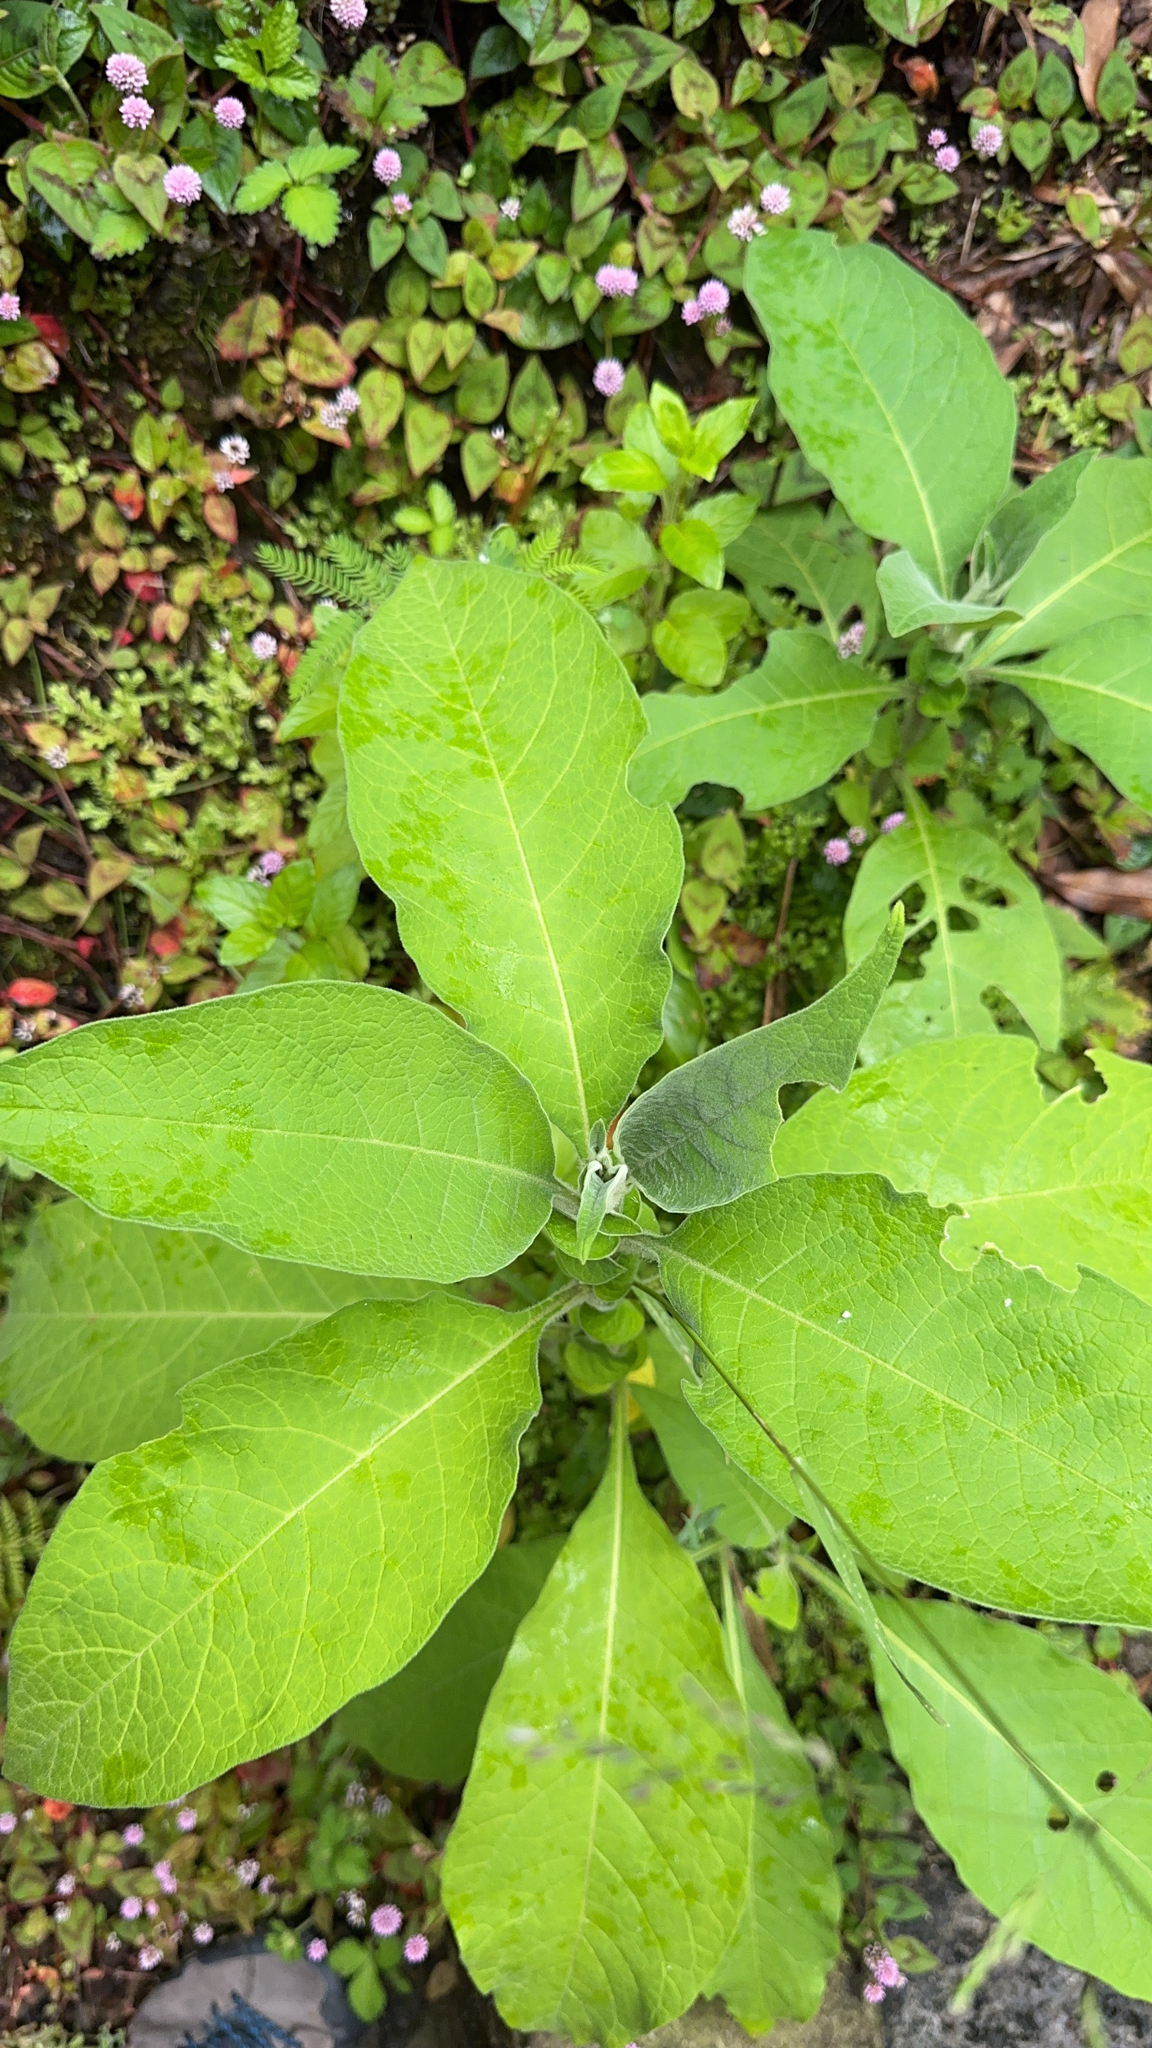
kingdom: Plantae
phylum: Tracheophyta
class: Magnoliopsida
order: Solanales
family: Solanaceae
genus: Solanum
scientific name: Solanum mauritianum
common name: Earleaf nightshade
